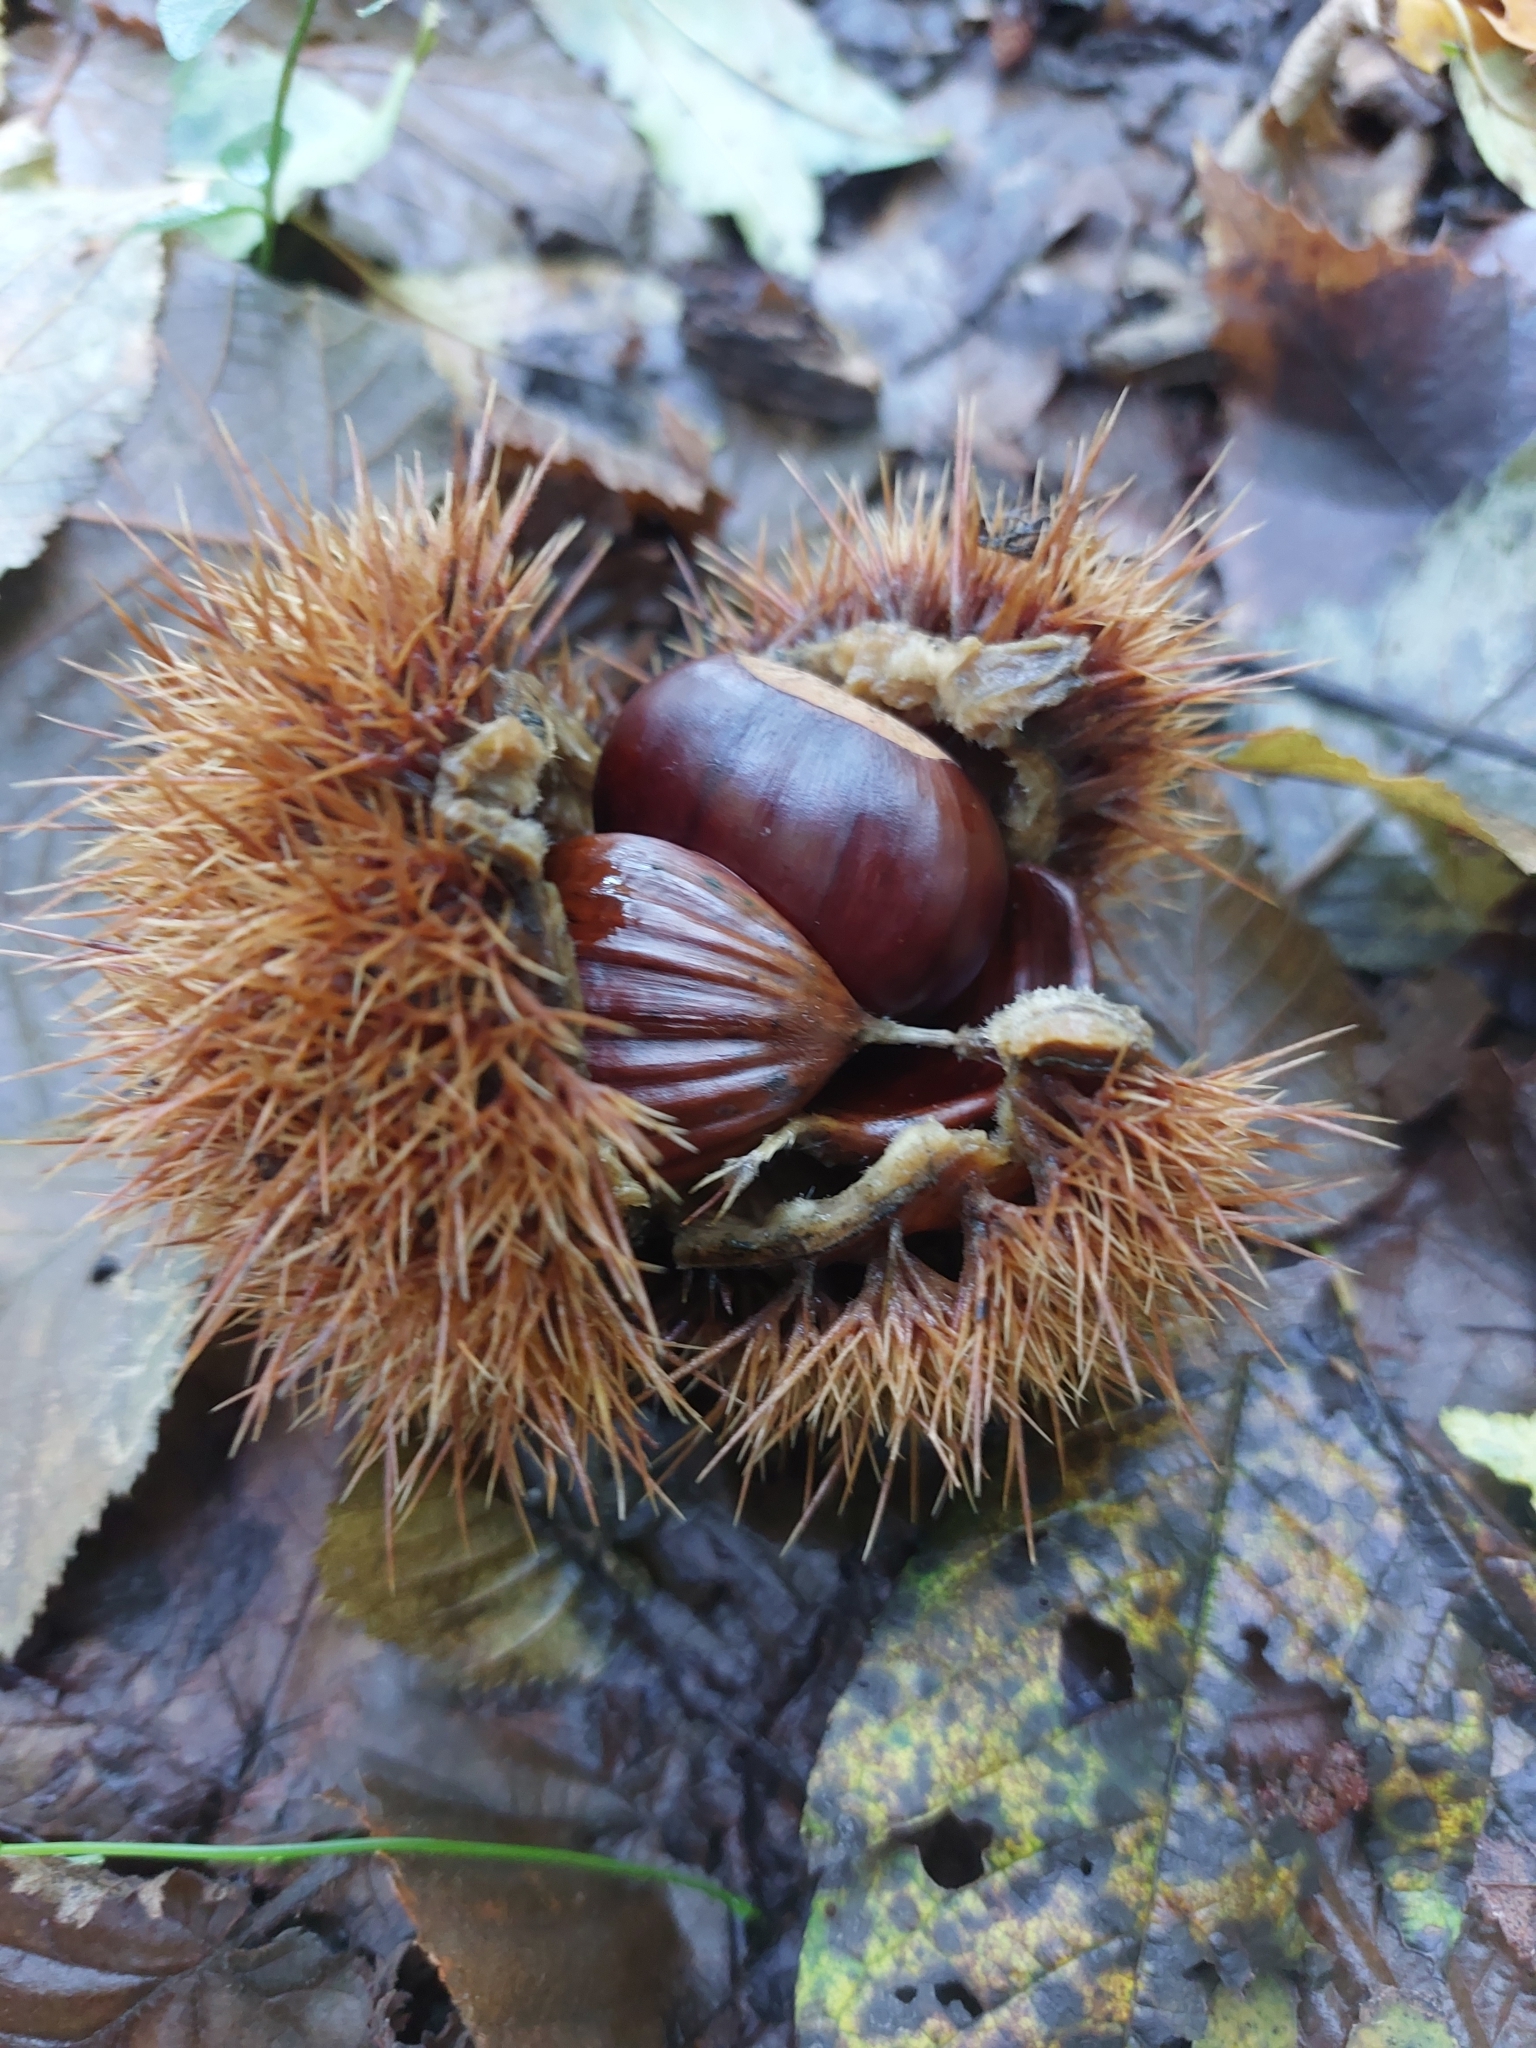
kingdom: Plantae
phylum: Tracheophyta
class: Magnoliopsida
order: Fagales
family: Fagaceae
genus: Castanea
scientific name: Castanea sativa
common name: Sweet chestnut
